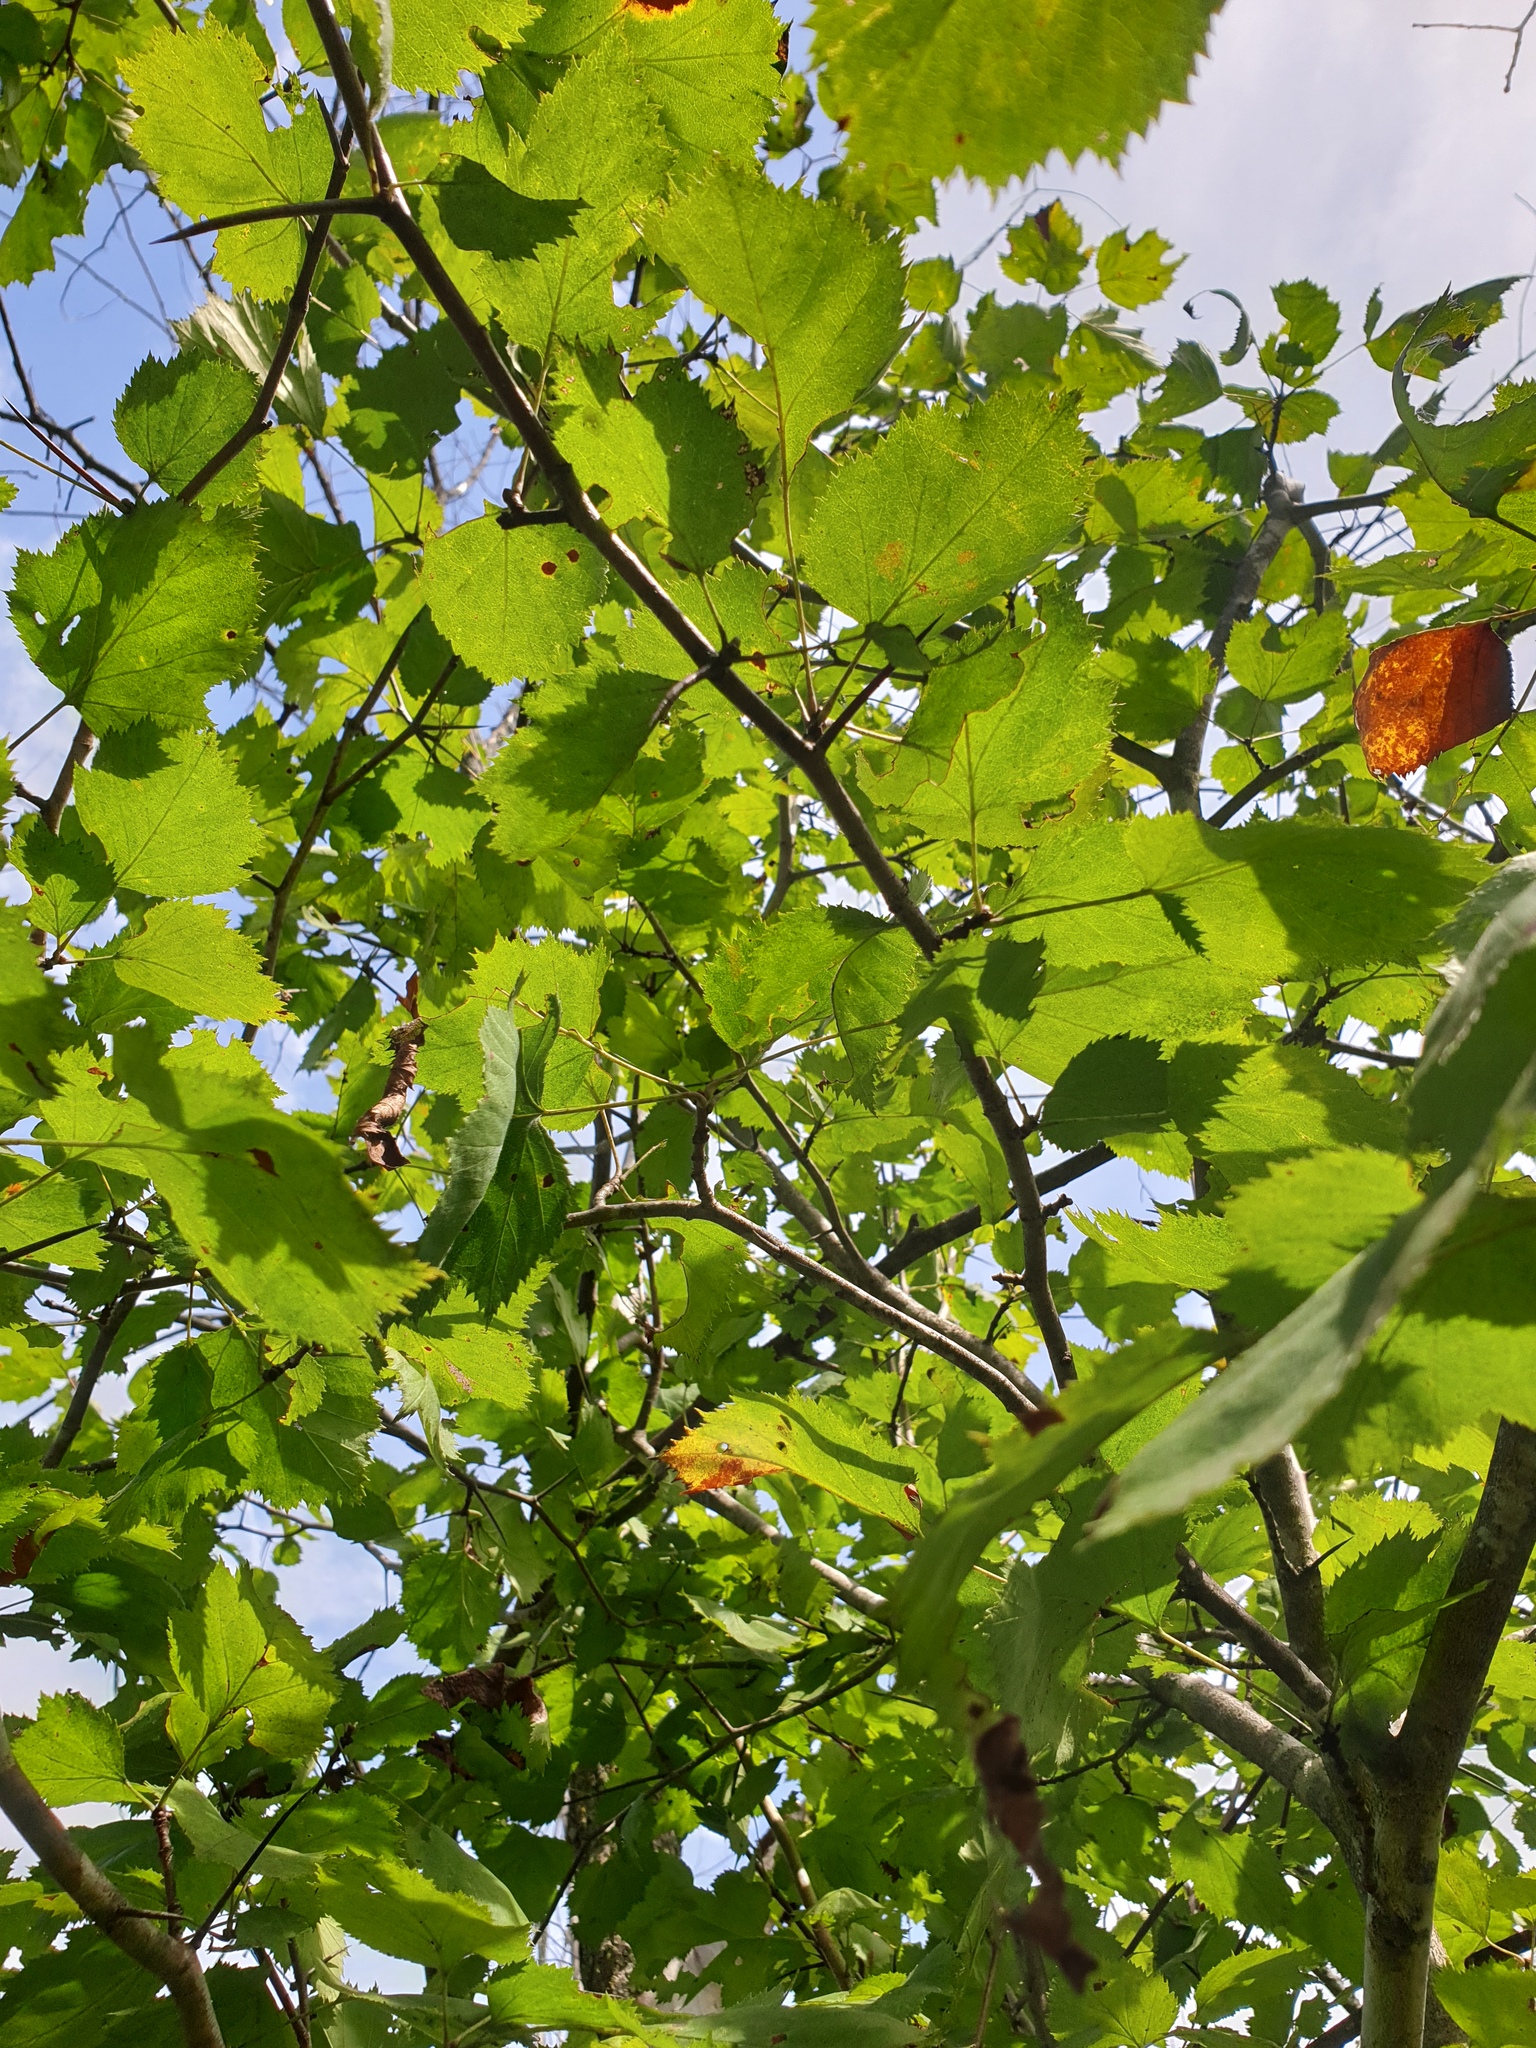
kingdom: Plantae
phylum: Tracheophyta
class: Magnoliopsida
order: Rosales
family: Rosaceae
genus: Crataegus
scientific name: Crataegus coccinioides
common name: Large-flowered cockspurthorn
